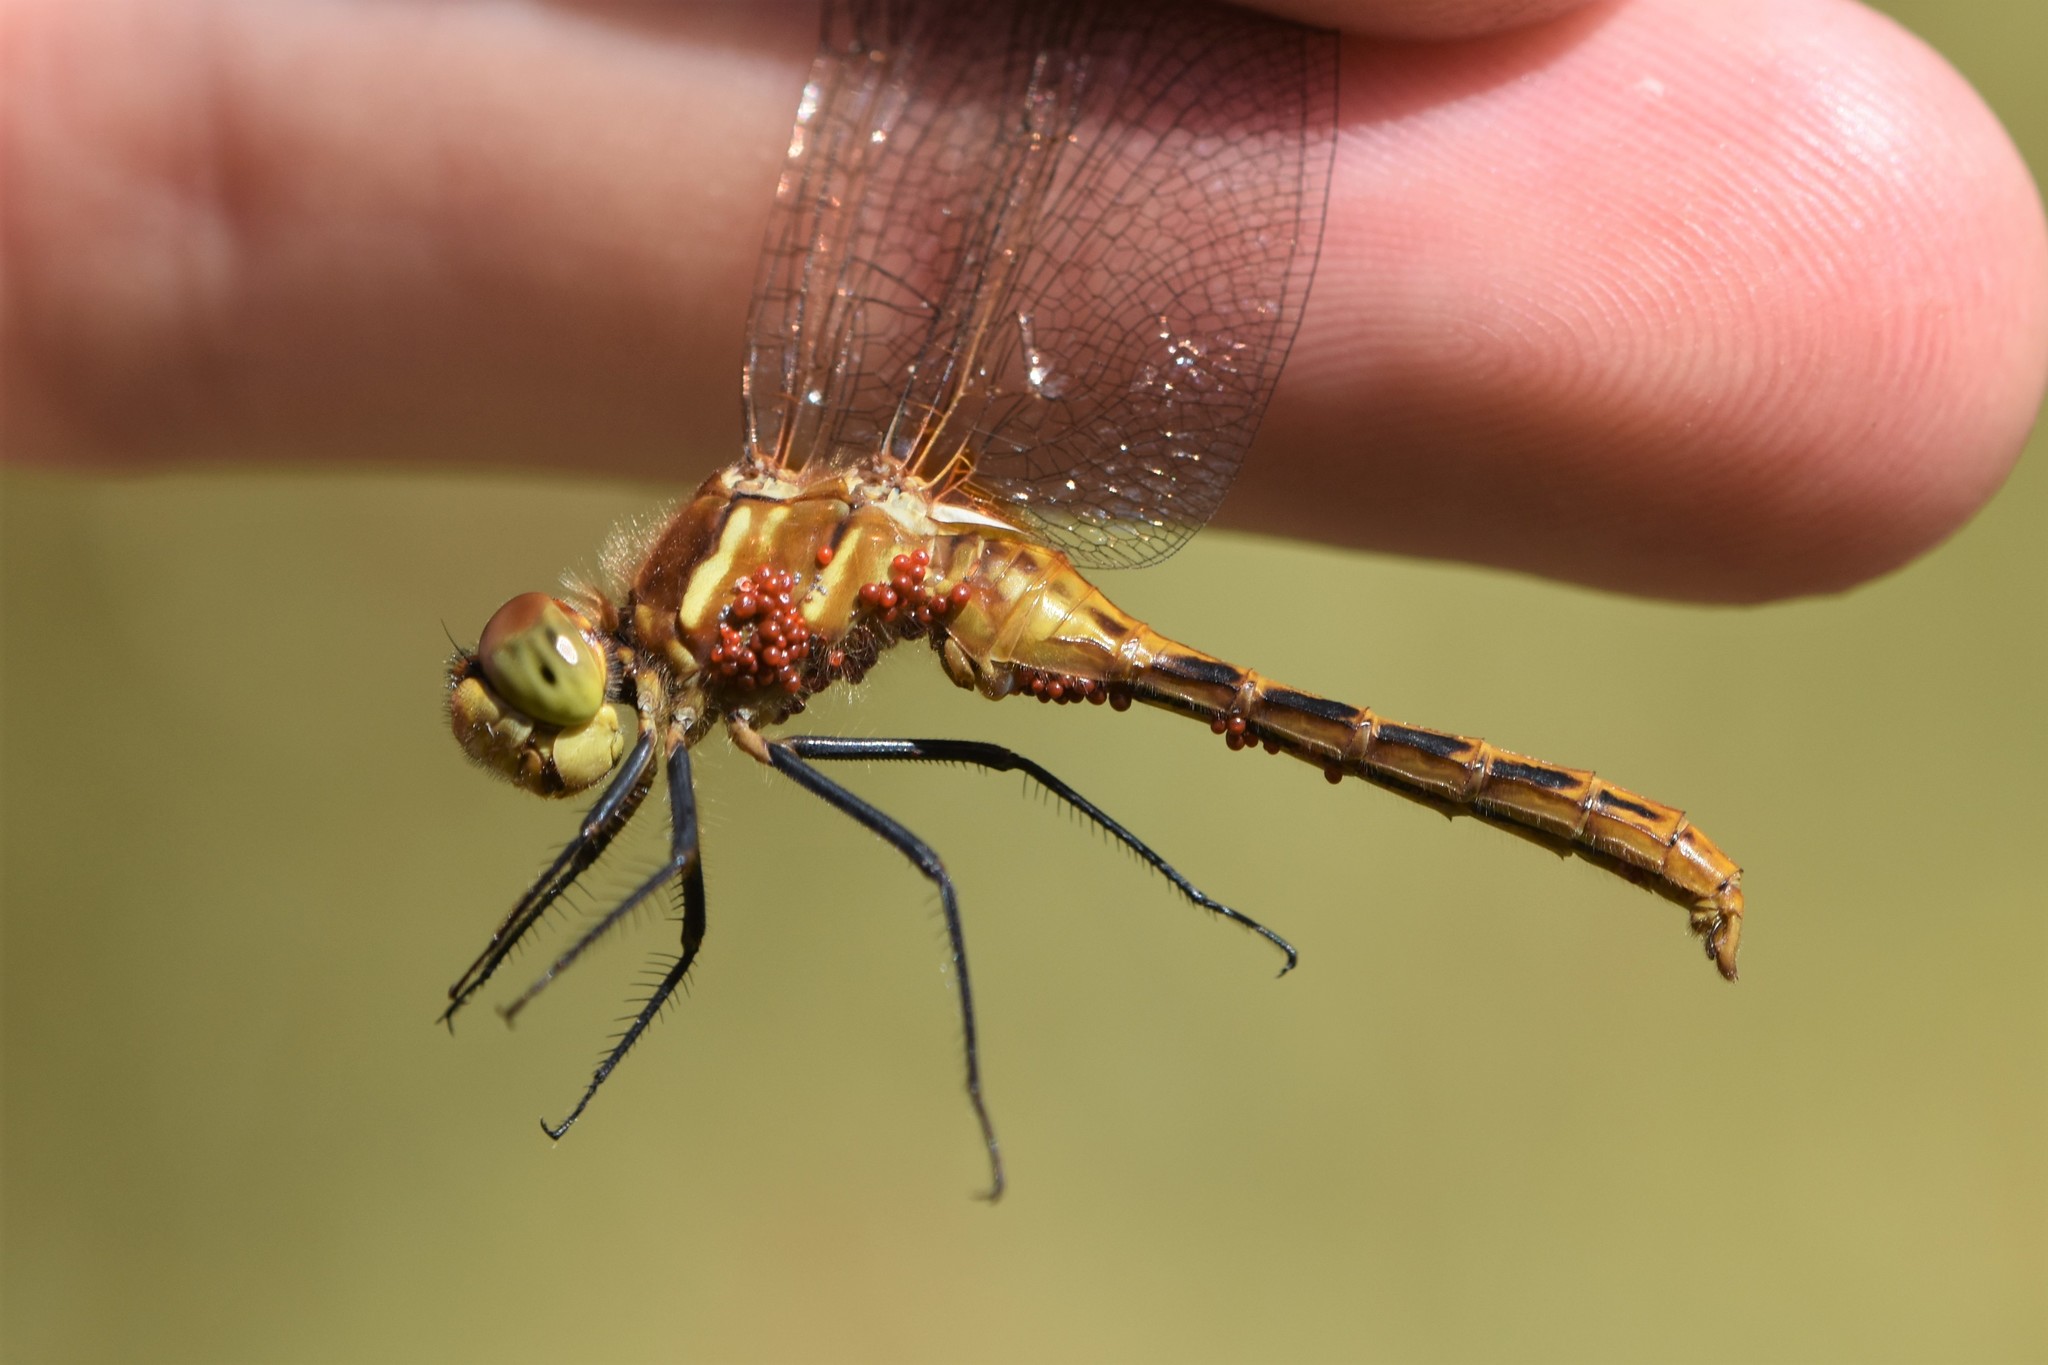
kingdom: Animalia
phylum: Arthropoda
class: Insecta
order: Odonata
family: Libellulidae
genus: Sympetrum
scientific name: Sympetrum pallipes
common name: Striped meadowhawk
